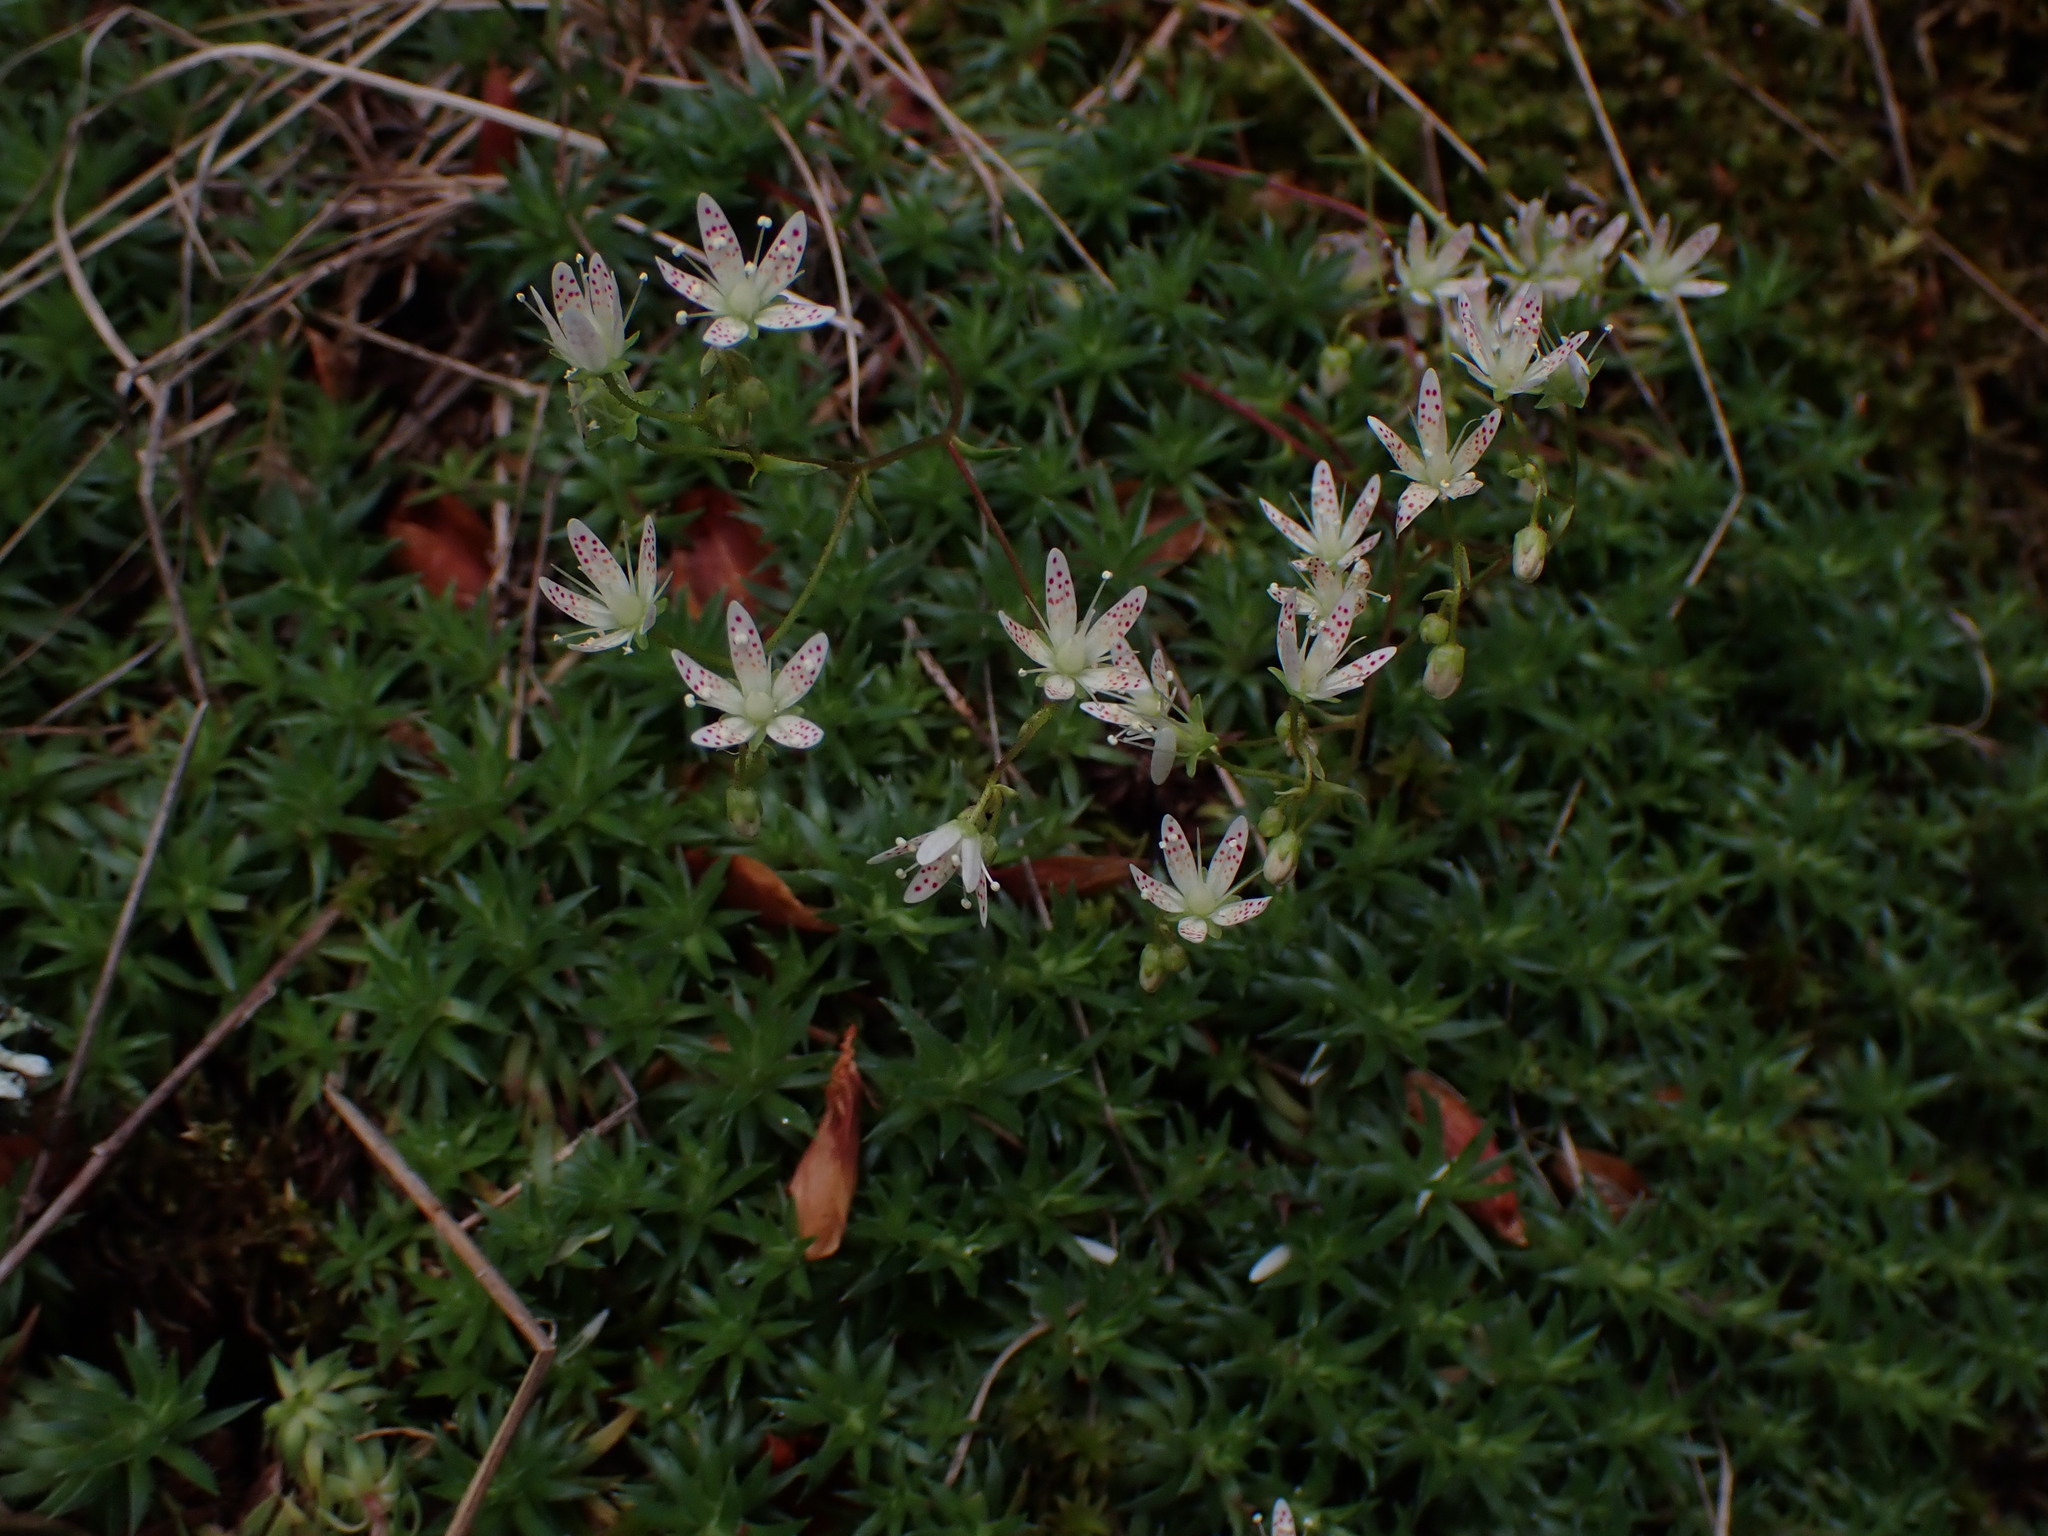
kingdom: Plantae
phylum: Tracheophyta
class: Magnoliopsida
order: Saxifragales
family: Saxifragaceae
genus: Saxifraga
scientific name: Saxifraga bronchialis
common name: Matted saxifrage
